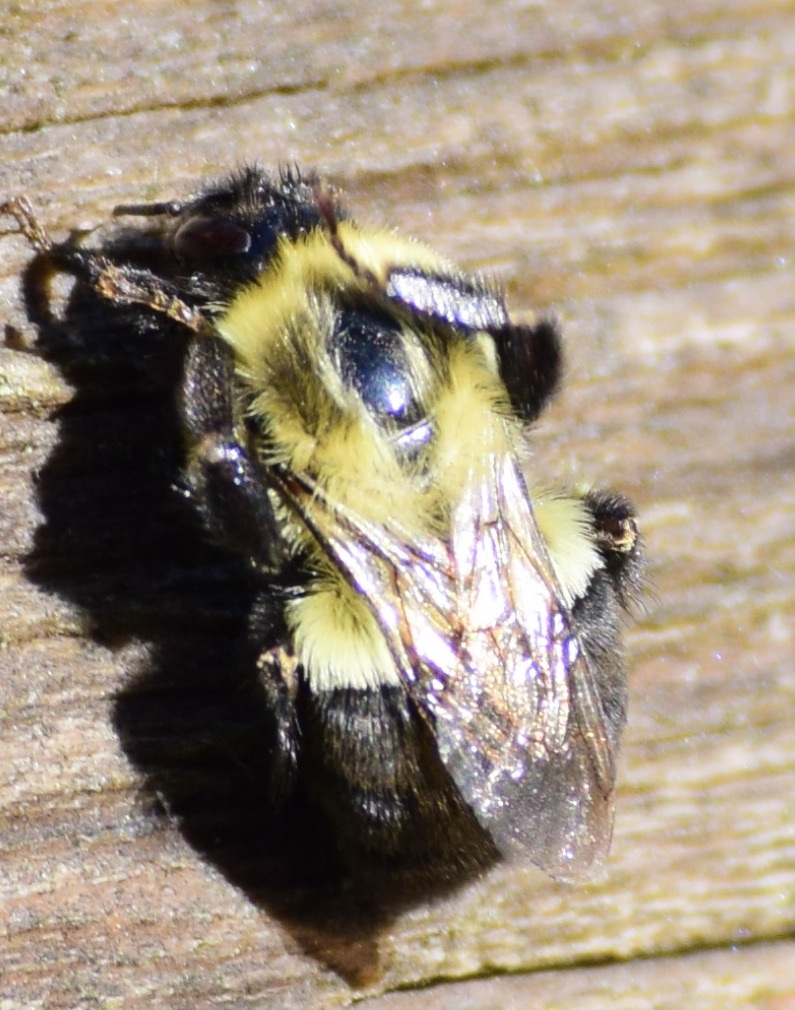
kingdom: Animalia
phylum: Arthropoda
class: Insecta
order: Hymenoptera
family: Apidae
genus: Bombus
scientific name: Bombus impatiens
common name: Common eastern bumble bee
